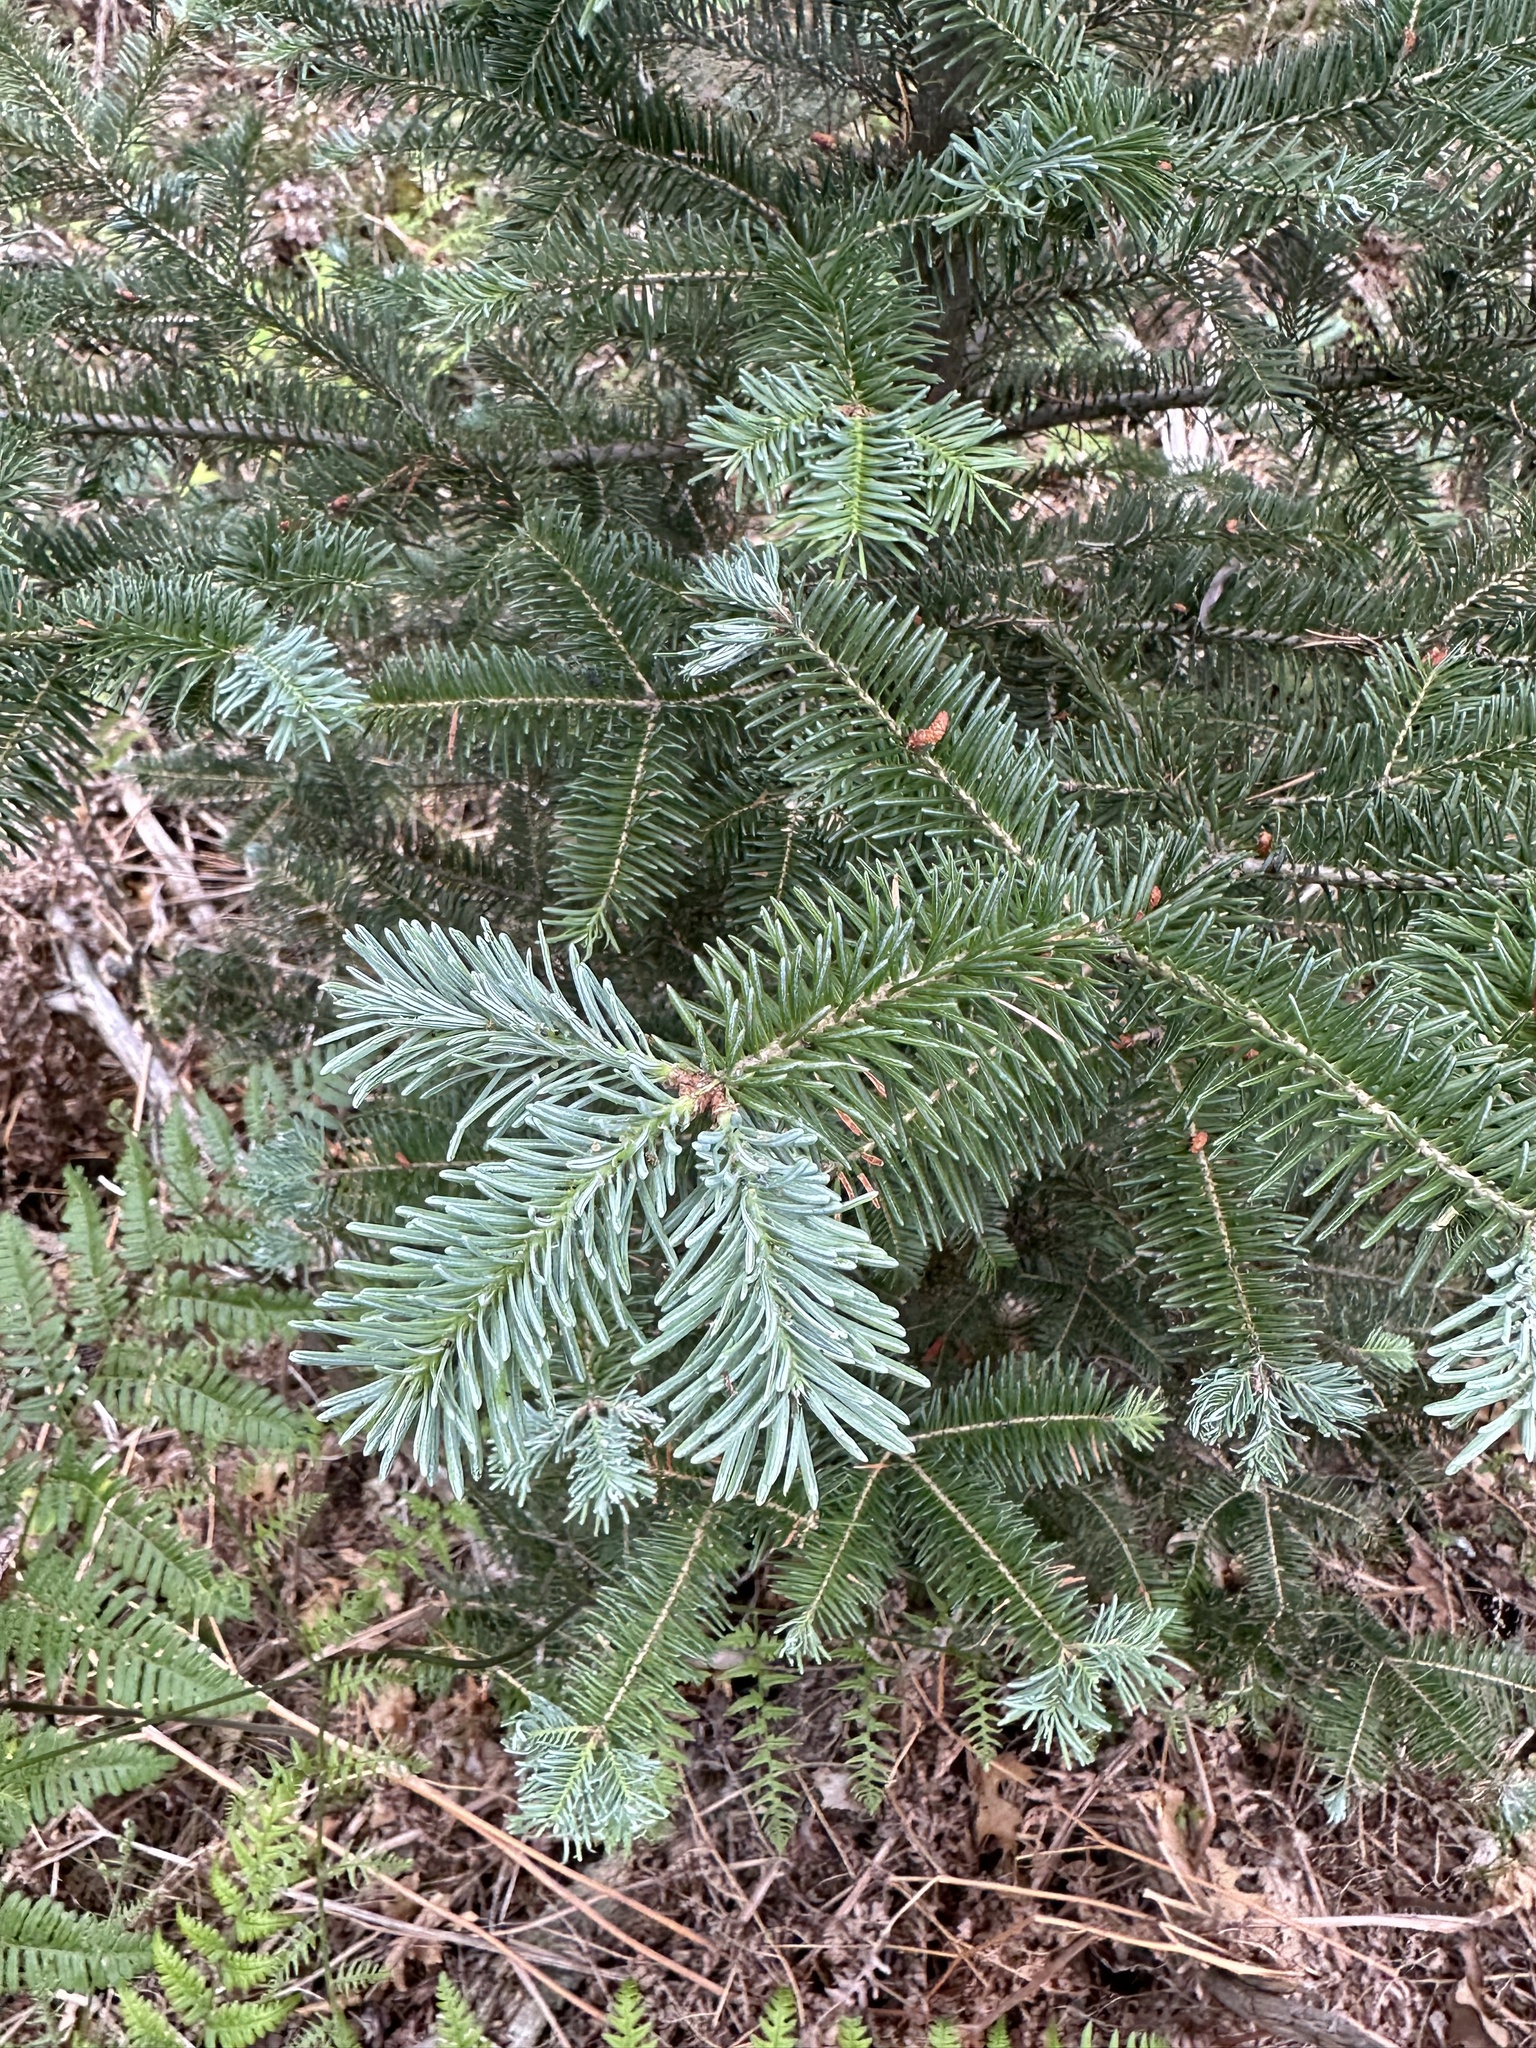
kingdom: Plantae
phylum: Tracheophyta
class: Pinopsida
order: Pinales
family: Pinaceae
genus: Abies
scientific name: Abies balsamea
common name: Balsam fir
